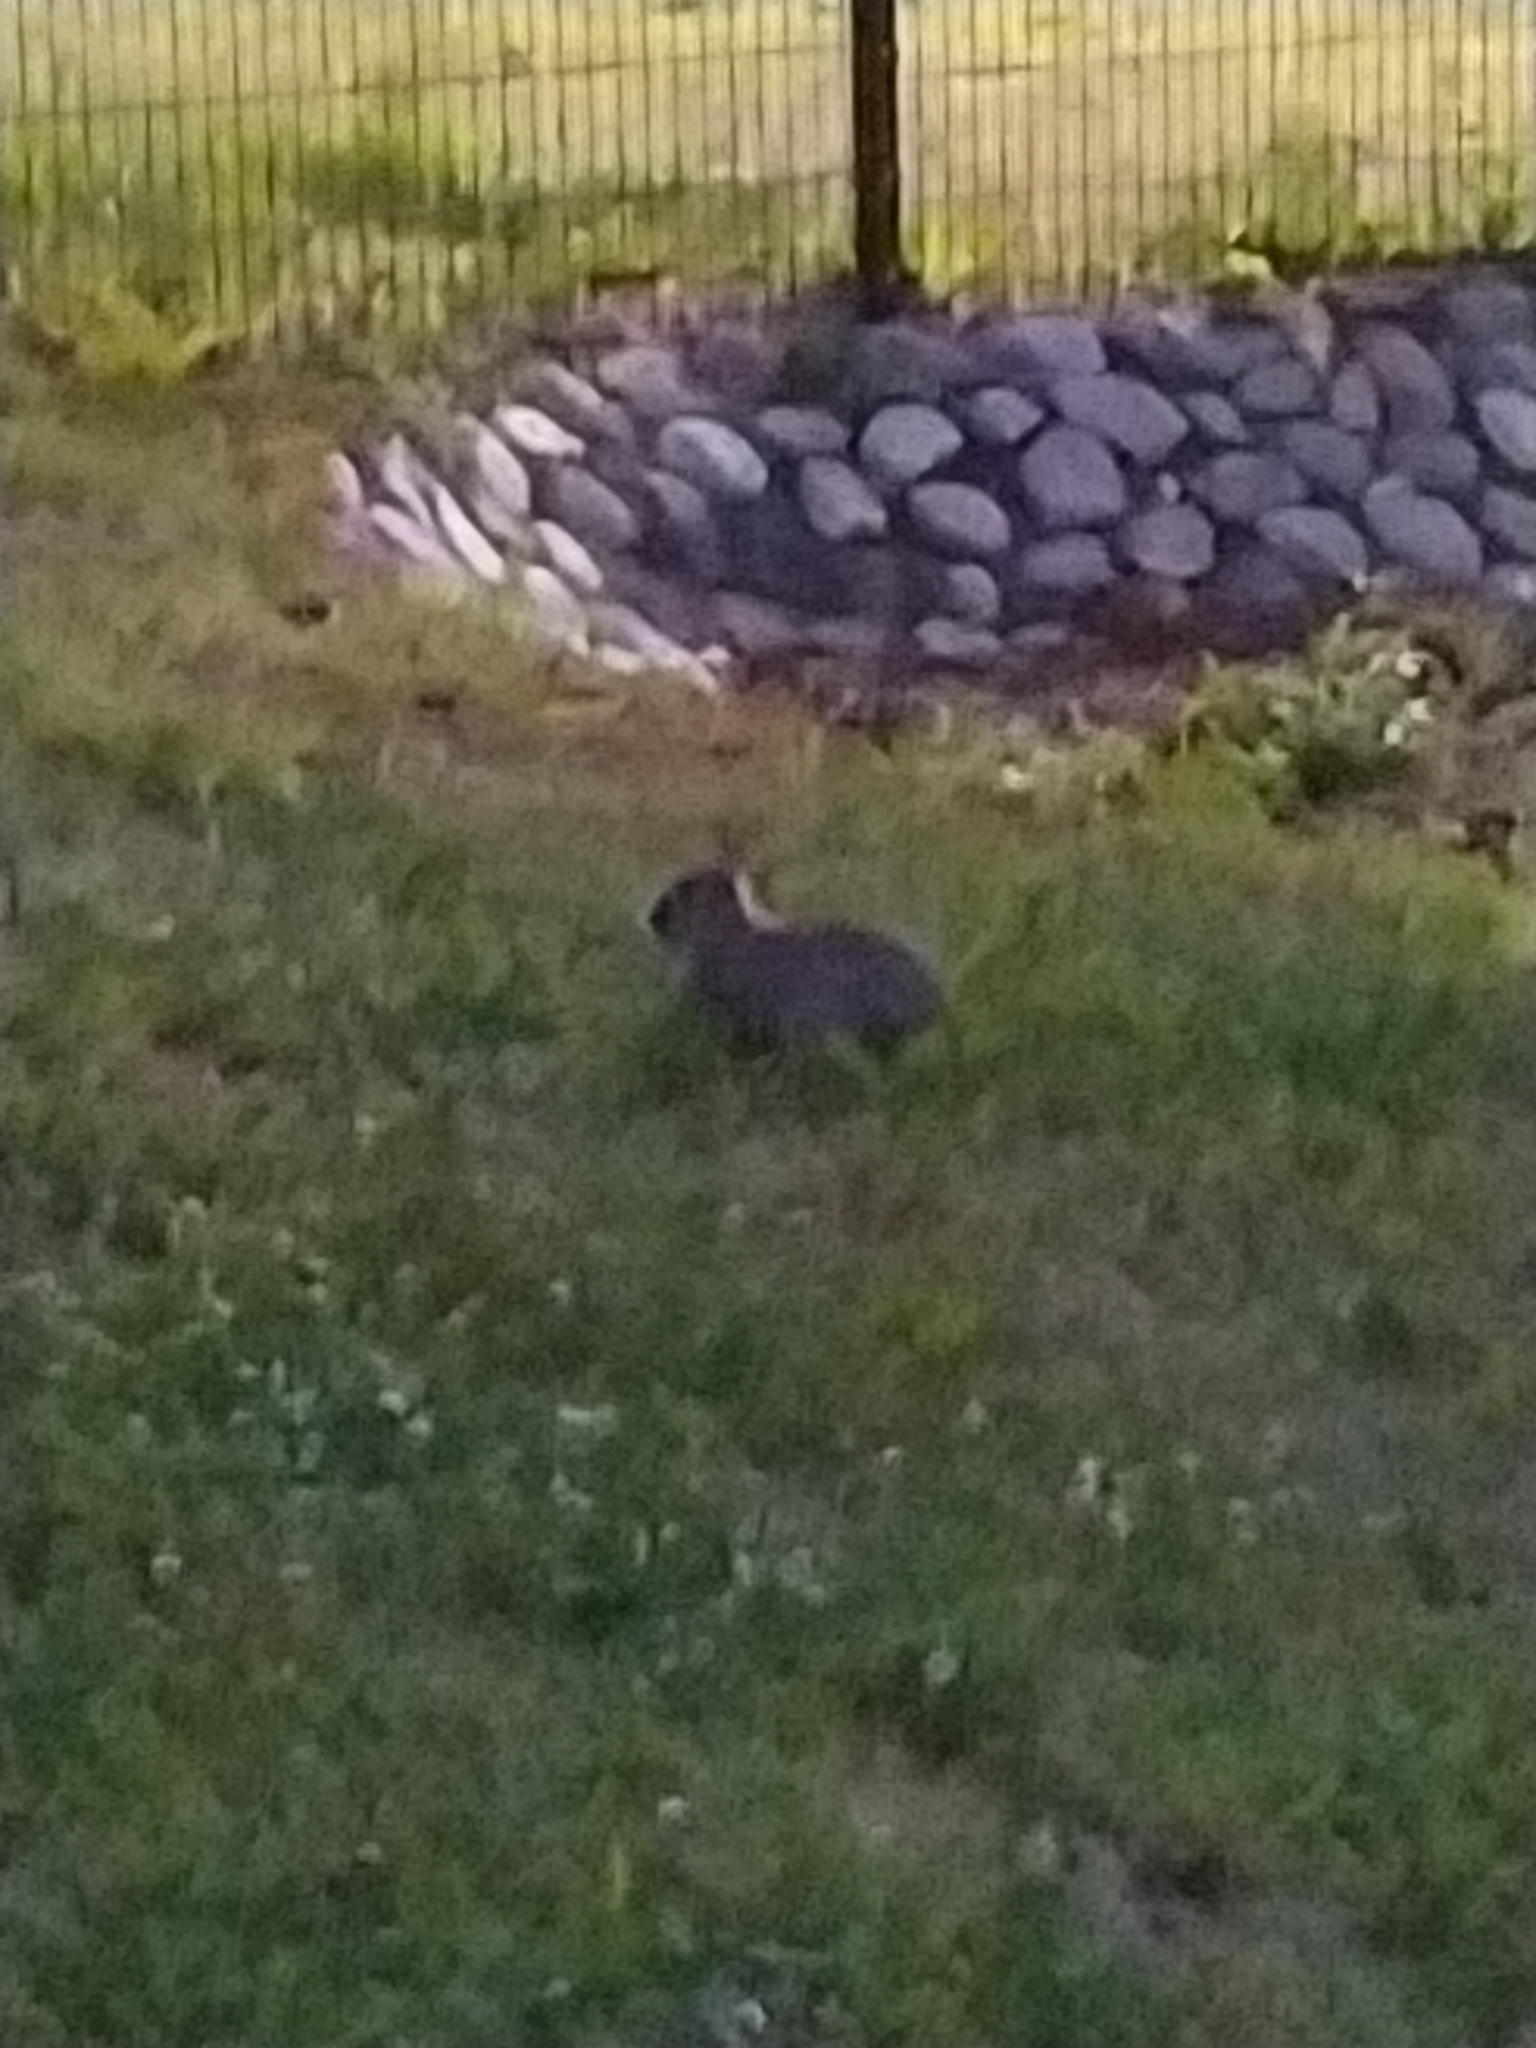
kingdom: Animalia
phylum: Chordata
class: Mammalia
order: Lagomorpha
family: Leporidae
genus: Oryctolagus
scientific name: Oryctolagus cuniculus
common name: European rabbit
